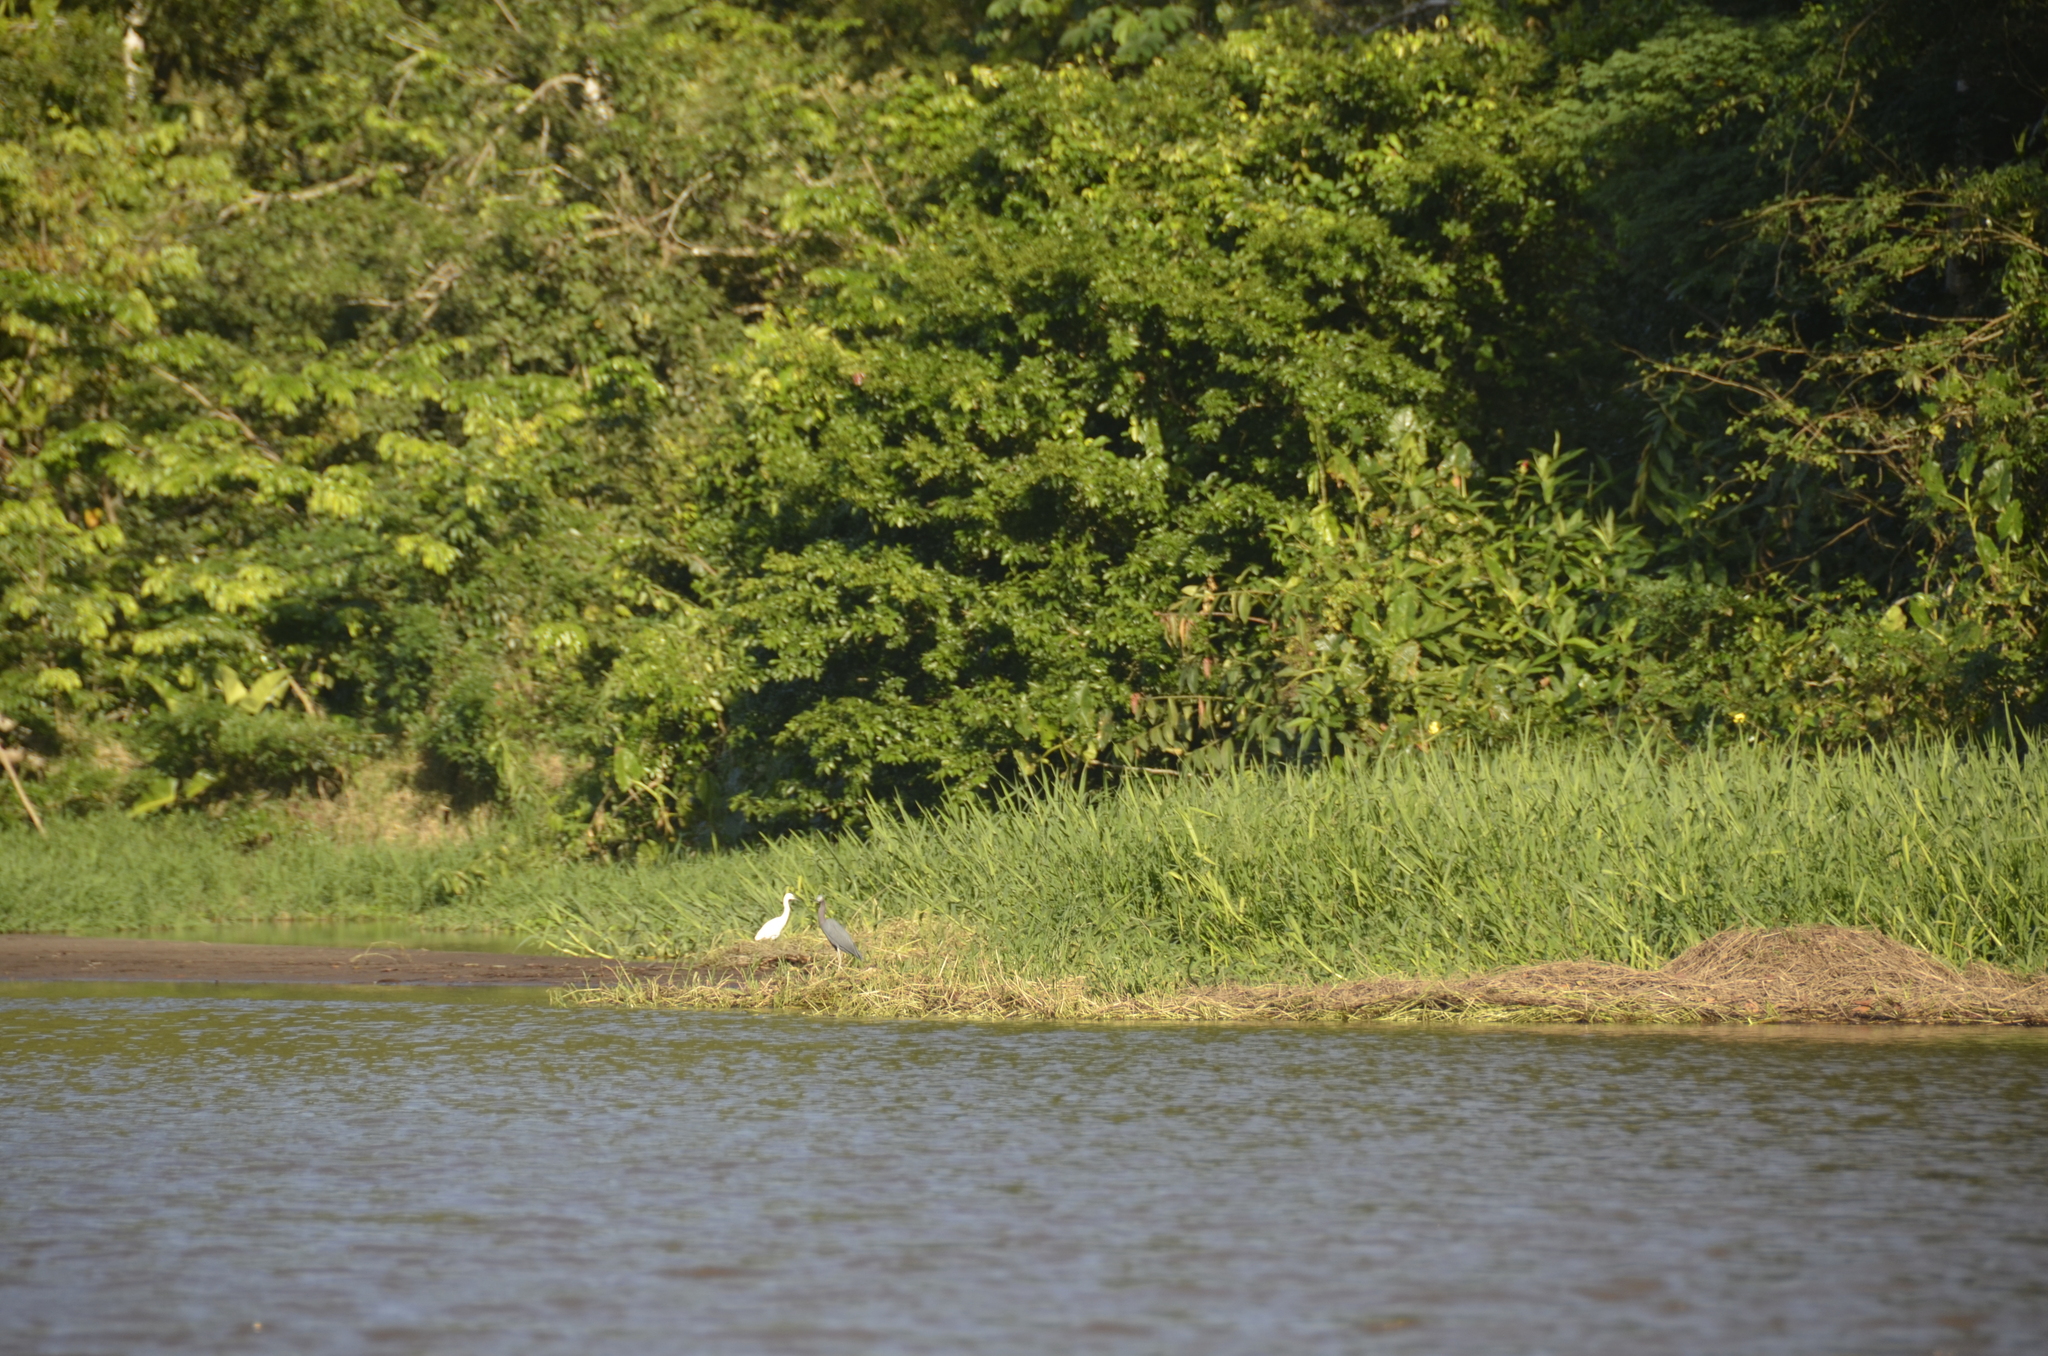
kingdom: Animalia
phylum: Chordata
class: Aves
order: Pelecaniformes
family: Ardeidae
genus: Egretta
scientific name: Egretta caerulea
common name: Little blue heron
